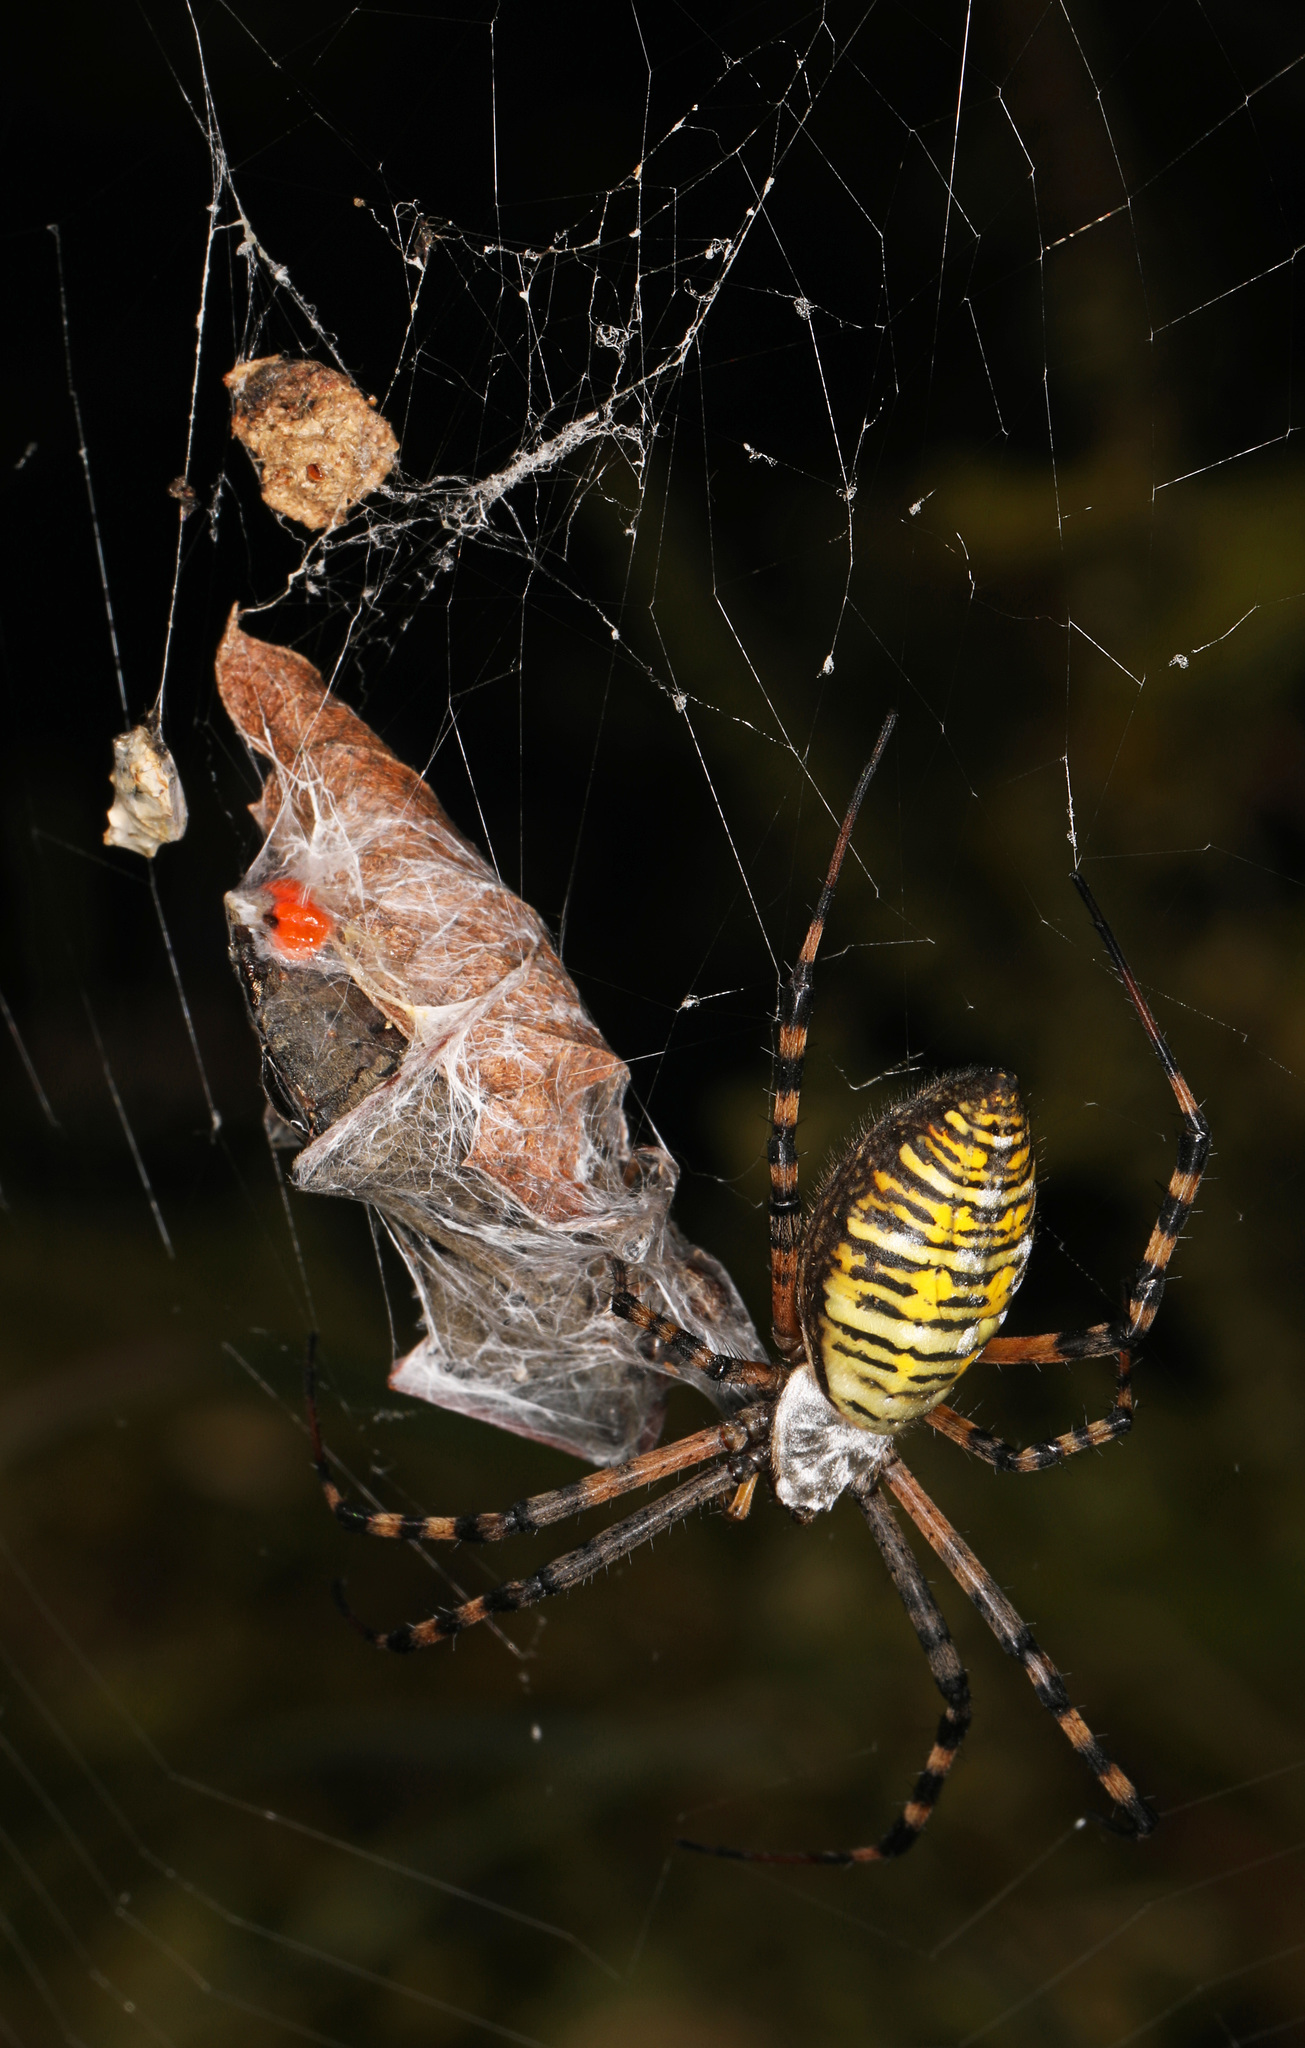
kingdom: Animalia
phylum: Arthropoda
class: Arachnida
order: Araneae
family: Araneidae
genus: Argiope
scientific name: Argiope trifasciata
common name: Banded garden spider
